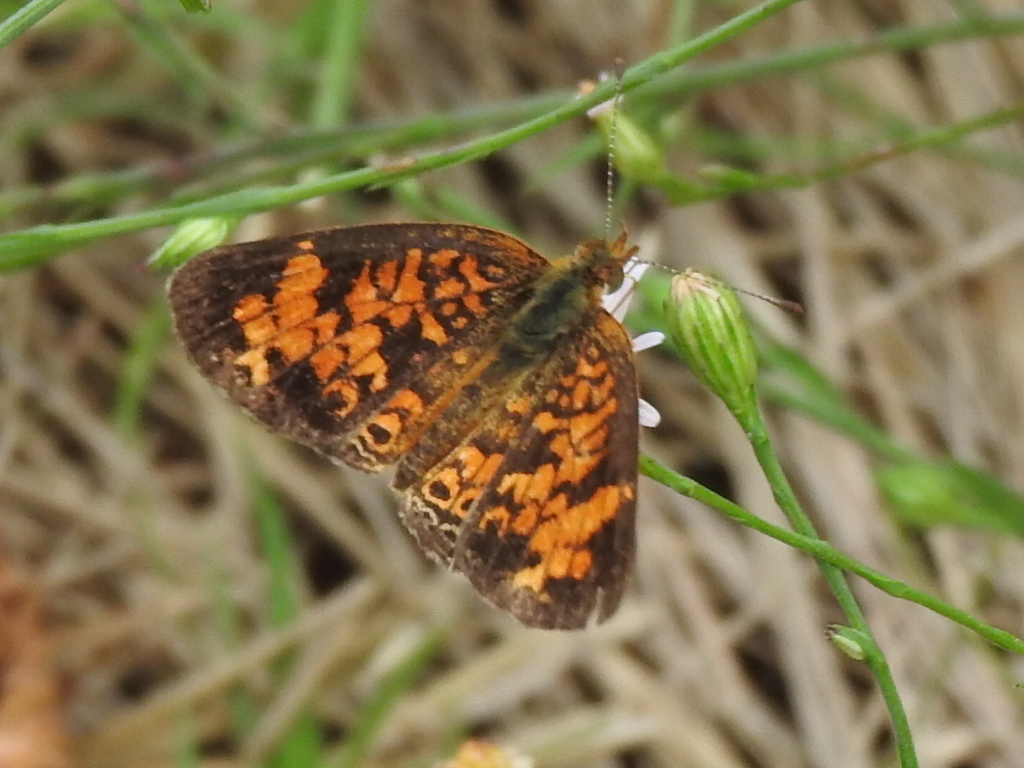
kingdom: Animalia
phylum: Arthropoda
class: Insecta
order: Lepidoptera
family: Nymphalidae
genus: Phyciodes
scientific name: Phyciodes tharos
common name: Pearl crescent
